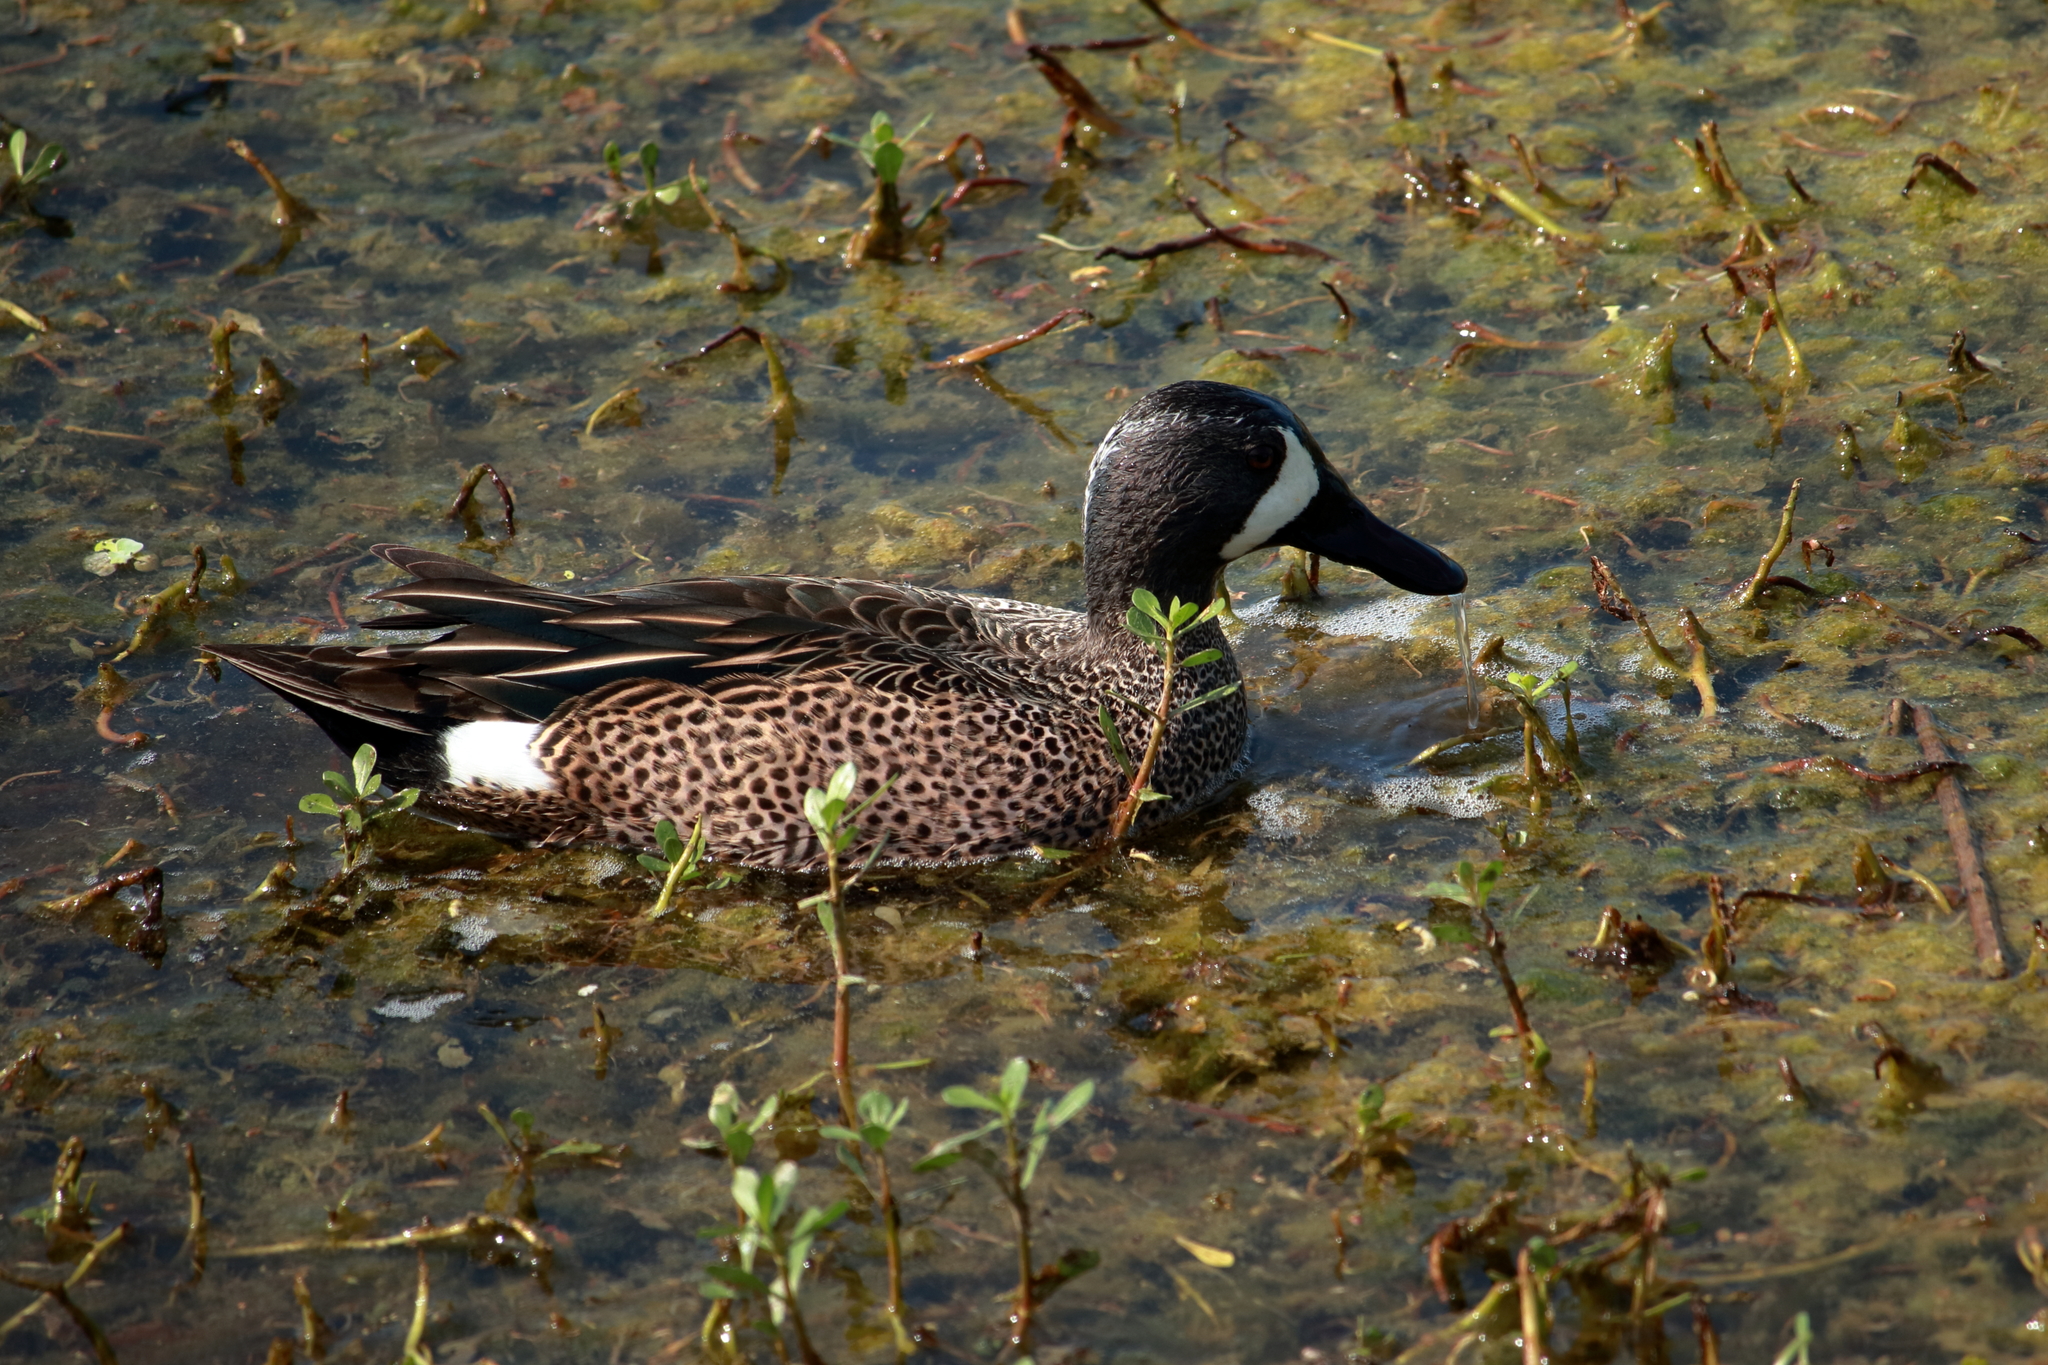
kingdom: Animalia
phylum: Chordata
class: Aves
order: Anseriformes
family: Anatidae
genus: Spatula
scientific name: Spatula discors
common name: Blue-winged teal
